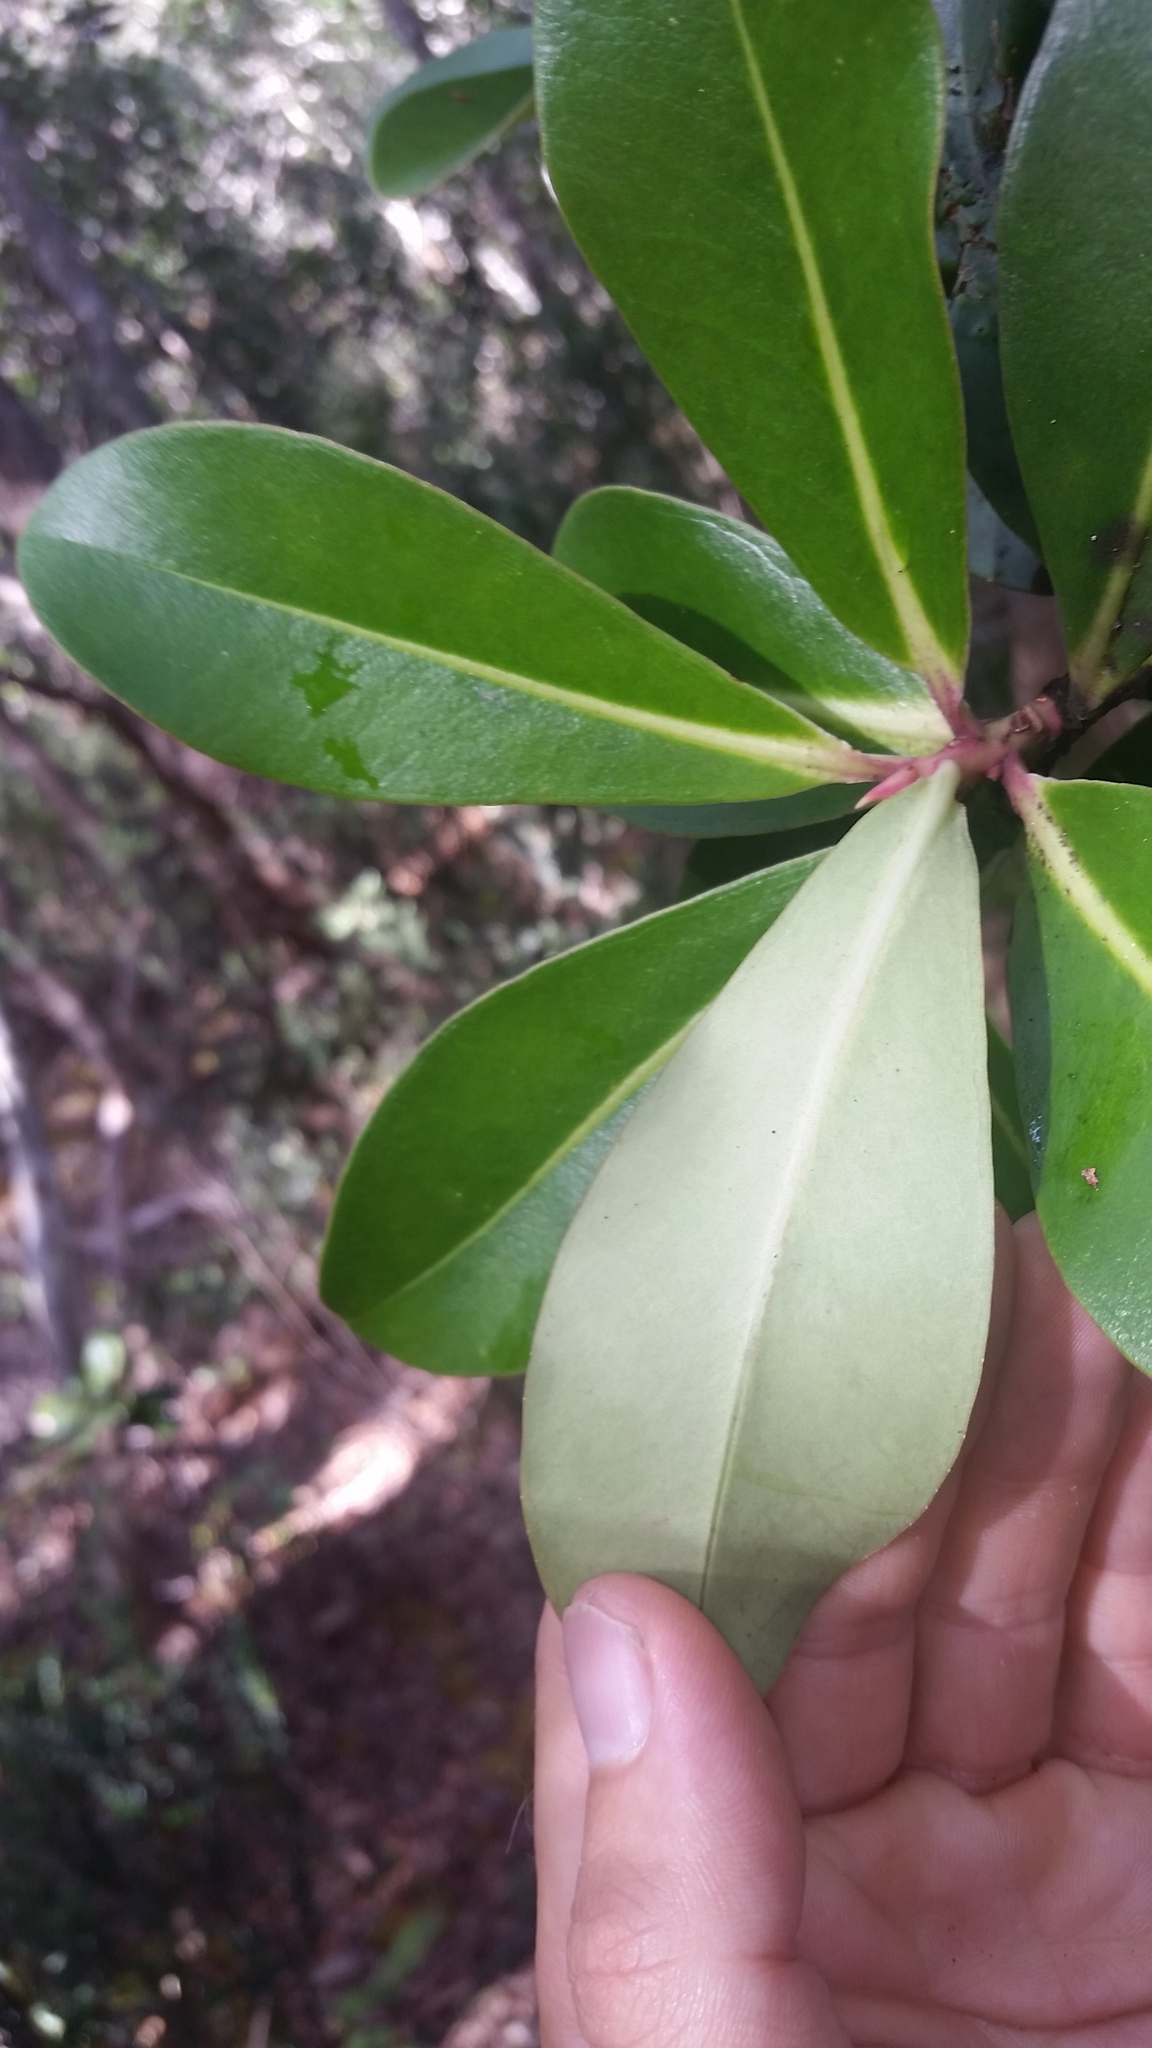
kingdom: Plantae
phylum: Tracheophyta
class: Magnoliopsida
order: Ericales
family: Primulaceae
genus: Myrsine
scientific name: Myrsine lessertiana
